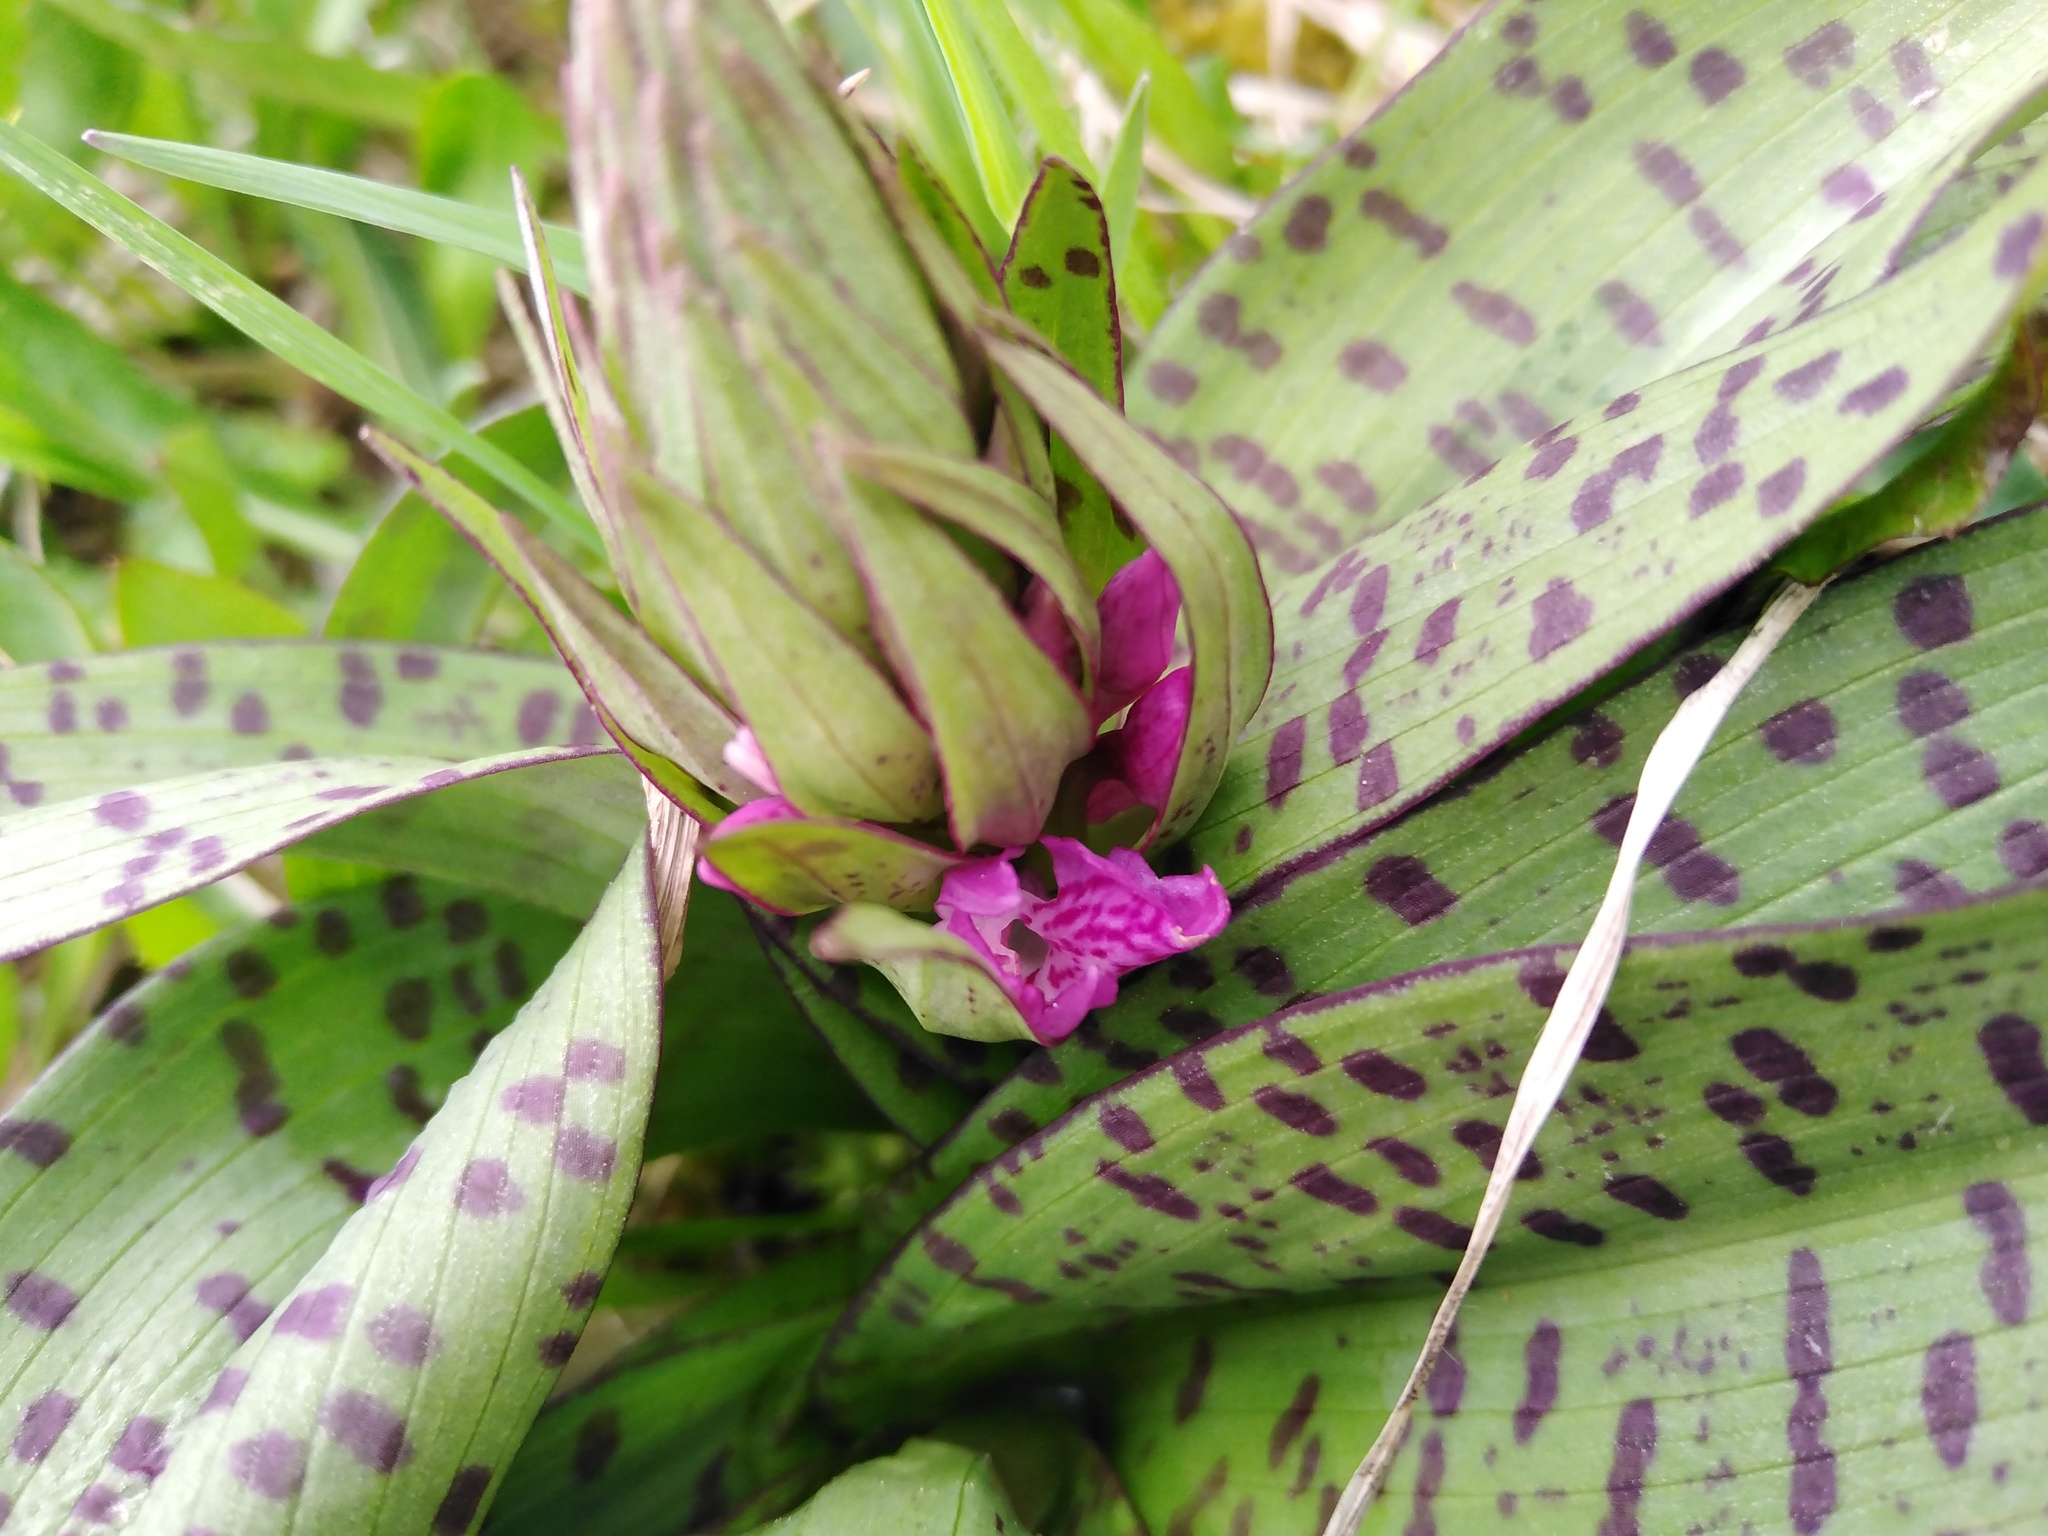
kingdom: Plantae
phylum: Tracheophyta
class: Liliopsida
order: Asparagales
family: Orchidaceae
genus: Dactylorhiza
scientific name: Dactylorhiza majalis
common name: Marsh orchid
